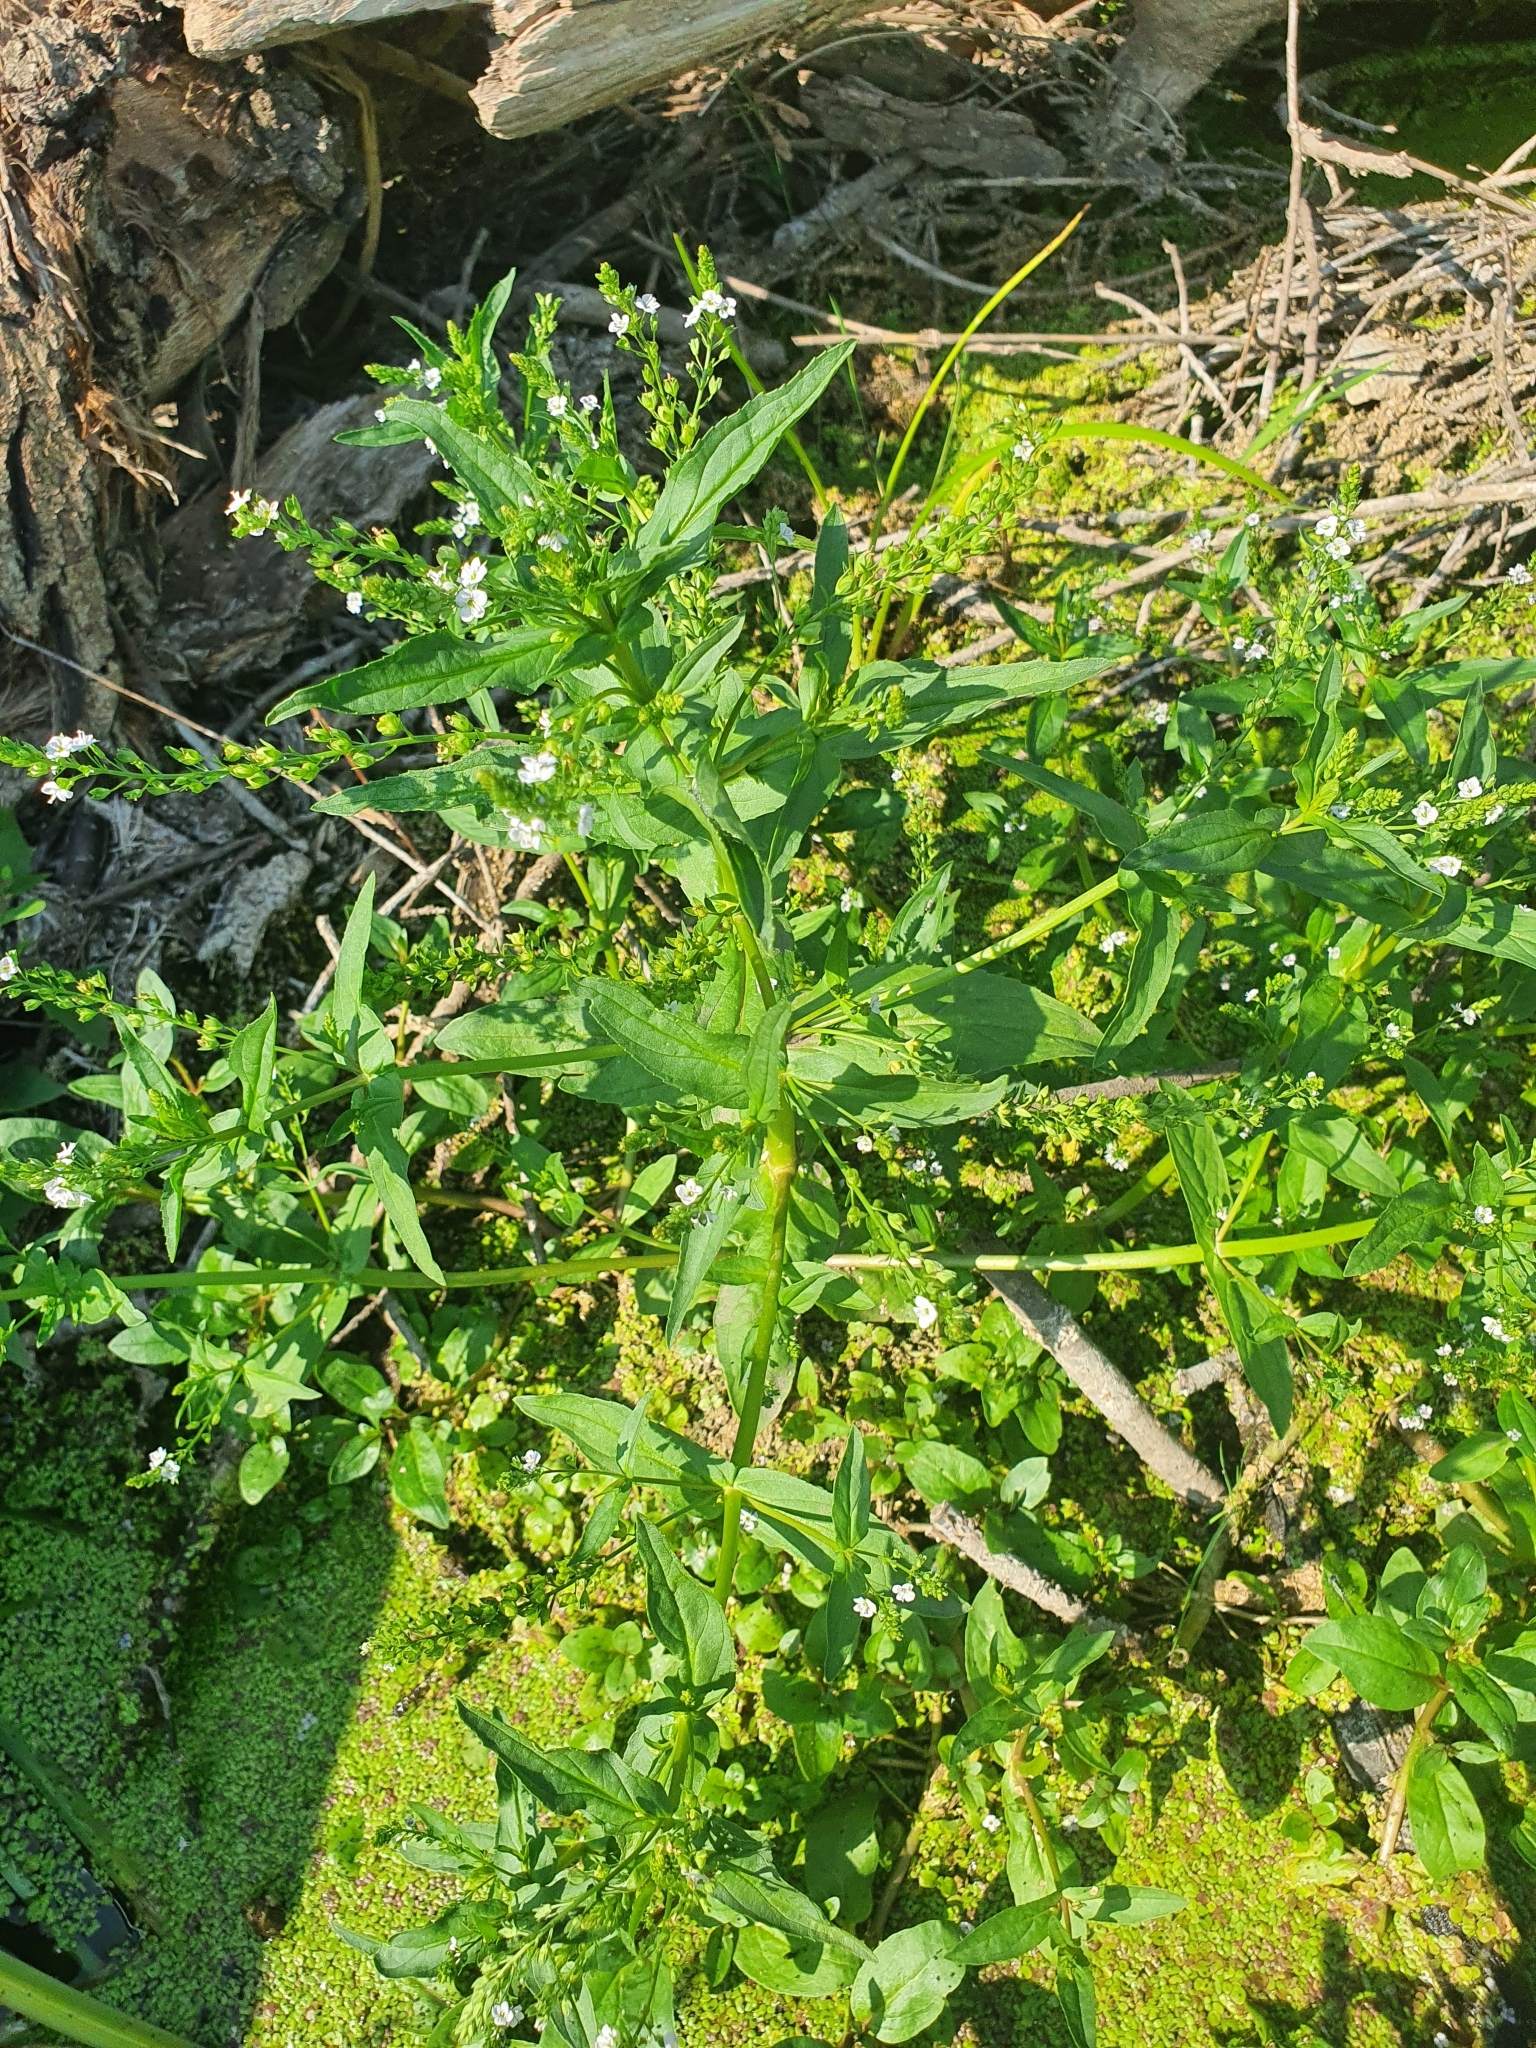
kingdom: Plantae
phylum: Tracheophyta
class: Magnoliopsida
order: Lamiales
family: Plantaginaceae
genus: Veronica
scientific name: Veronica anagallis-aquatica
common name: Water speedwell
